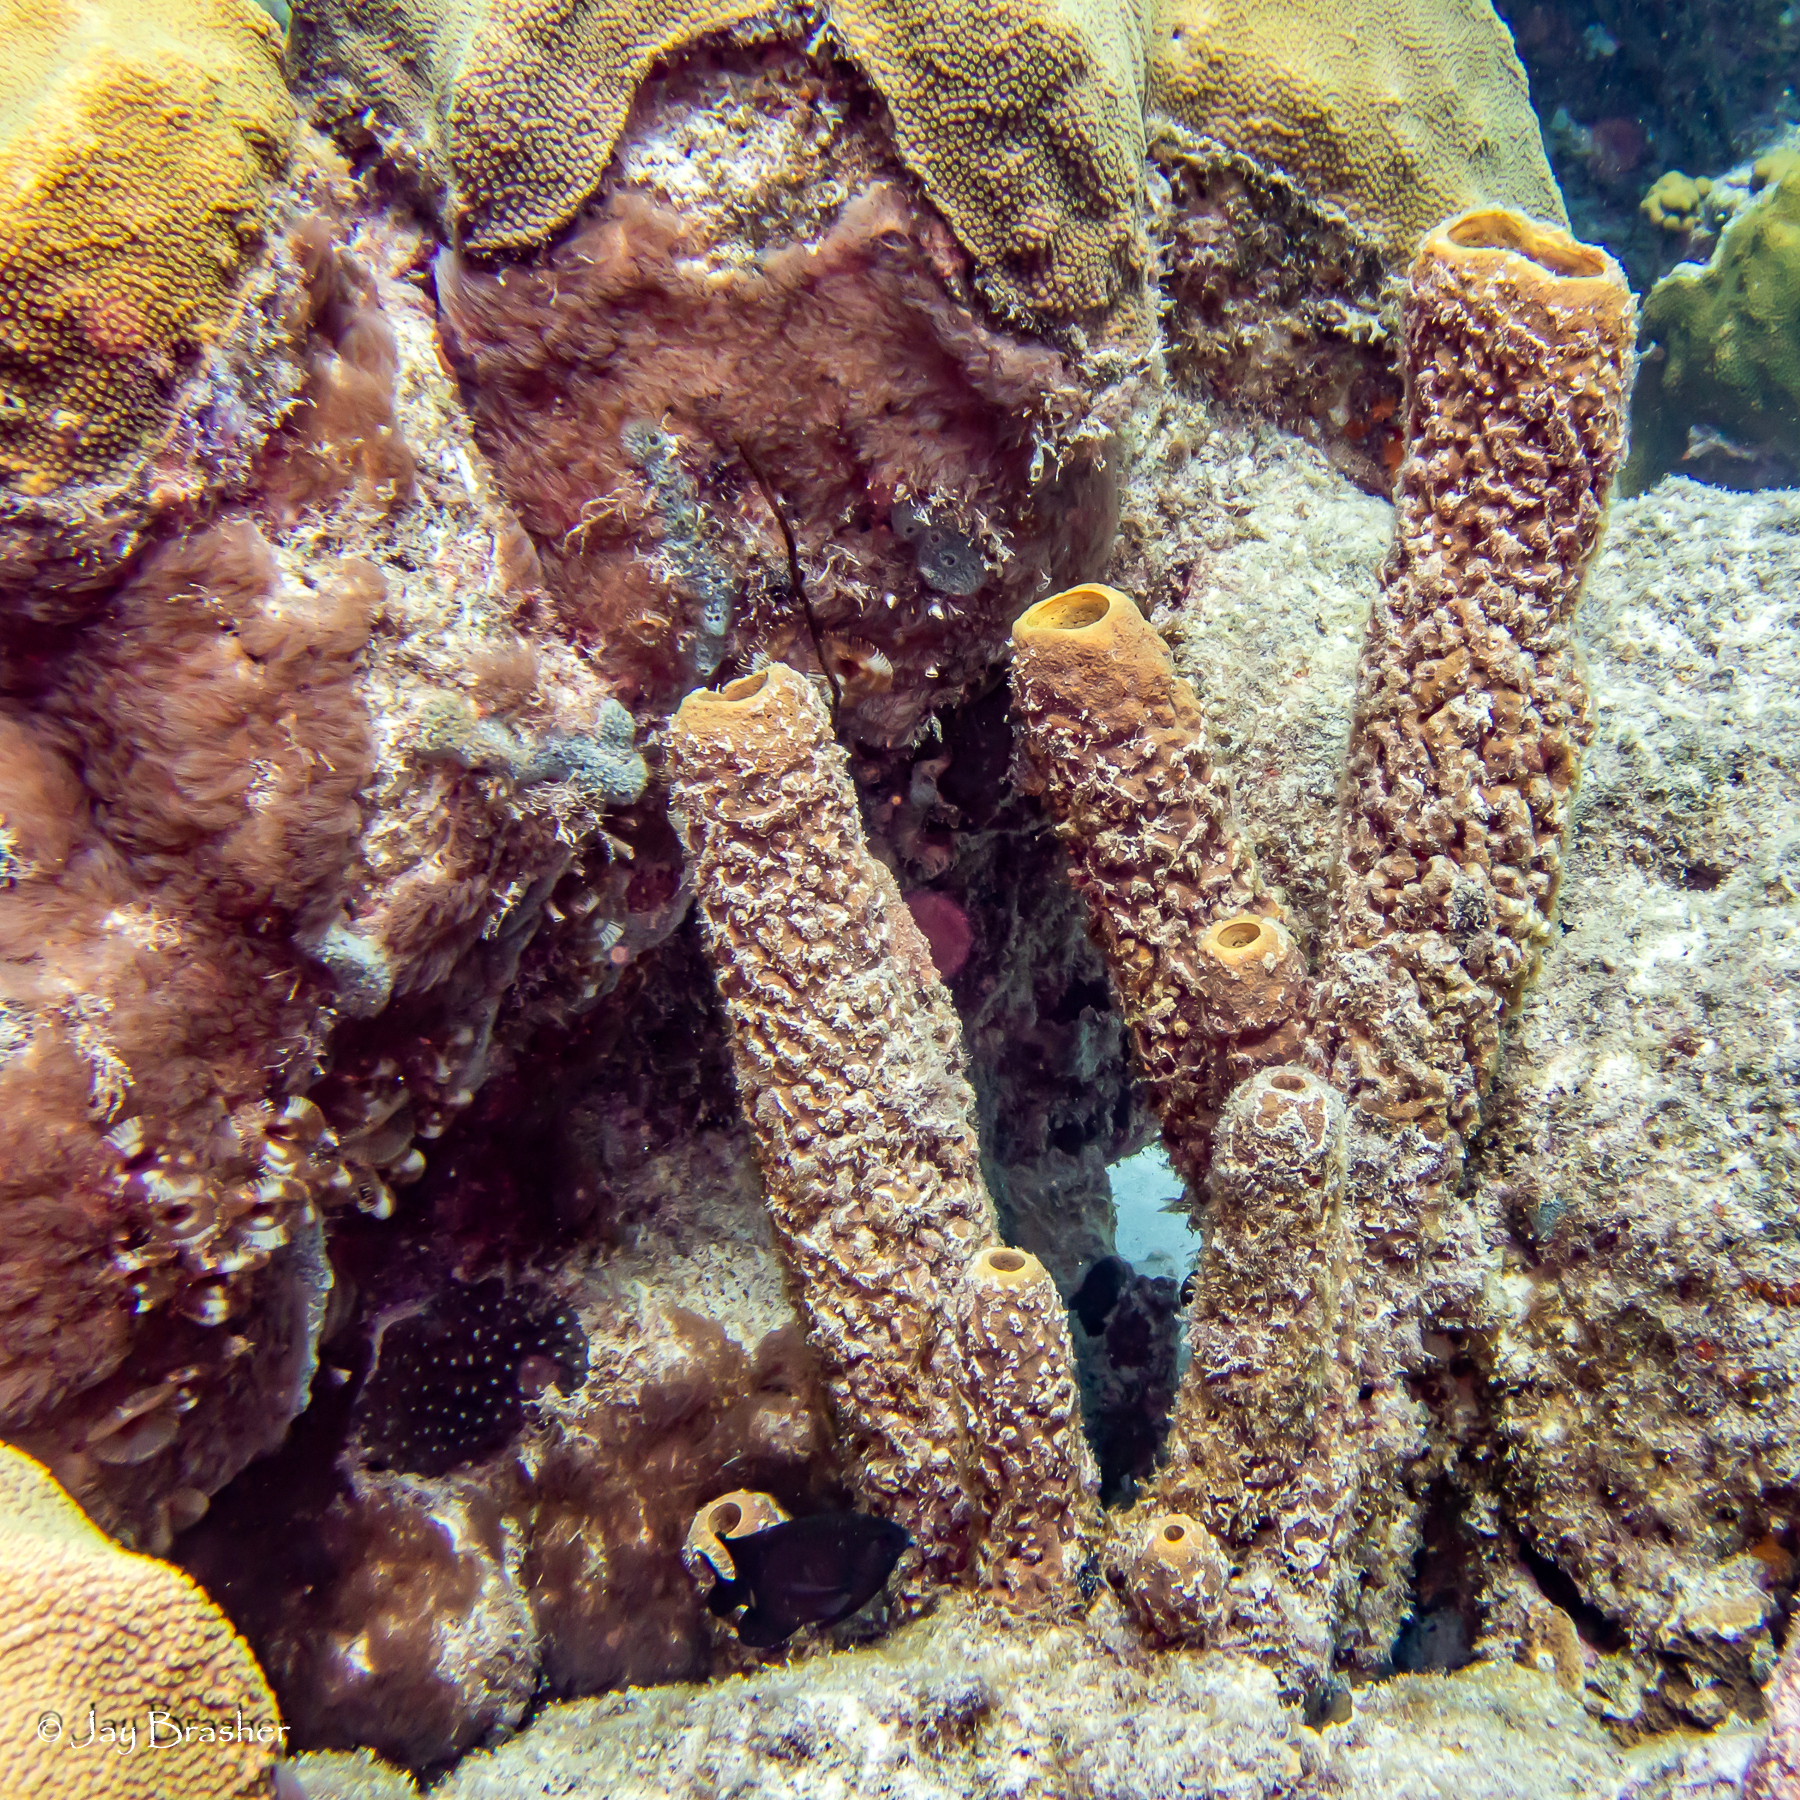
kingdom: Animalia
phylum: Porifera
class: Demospongiae
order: Verongiida
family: Aplysinidae
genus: Aplysina
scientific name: Aplysina archeri
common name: Stove-pipe sponge
